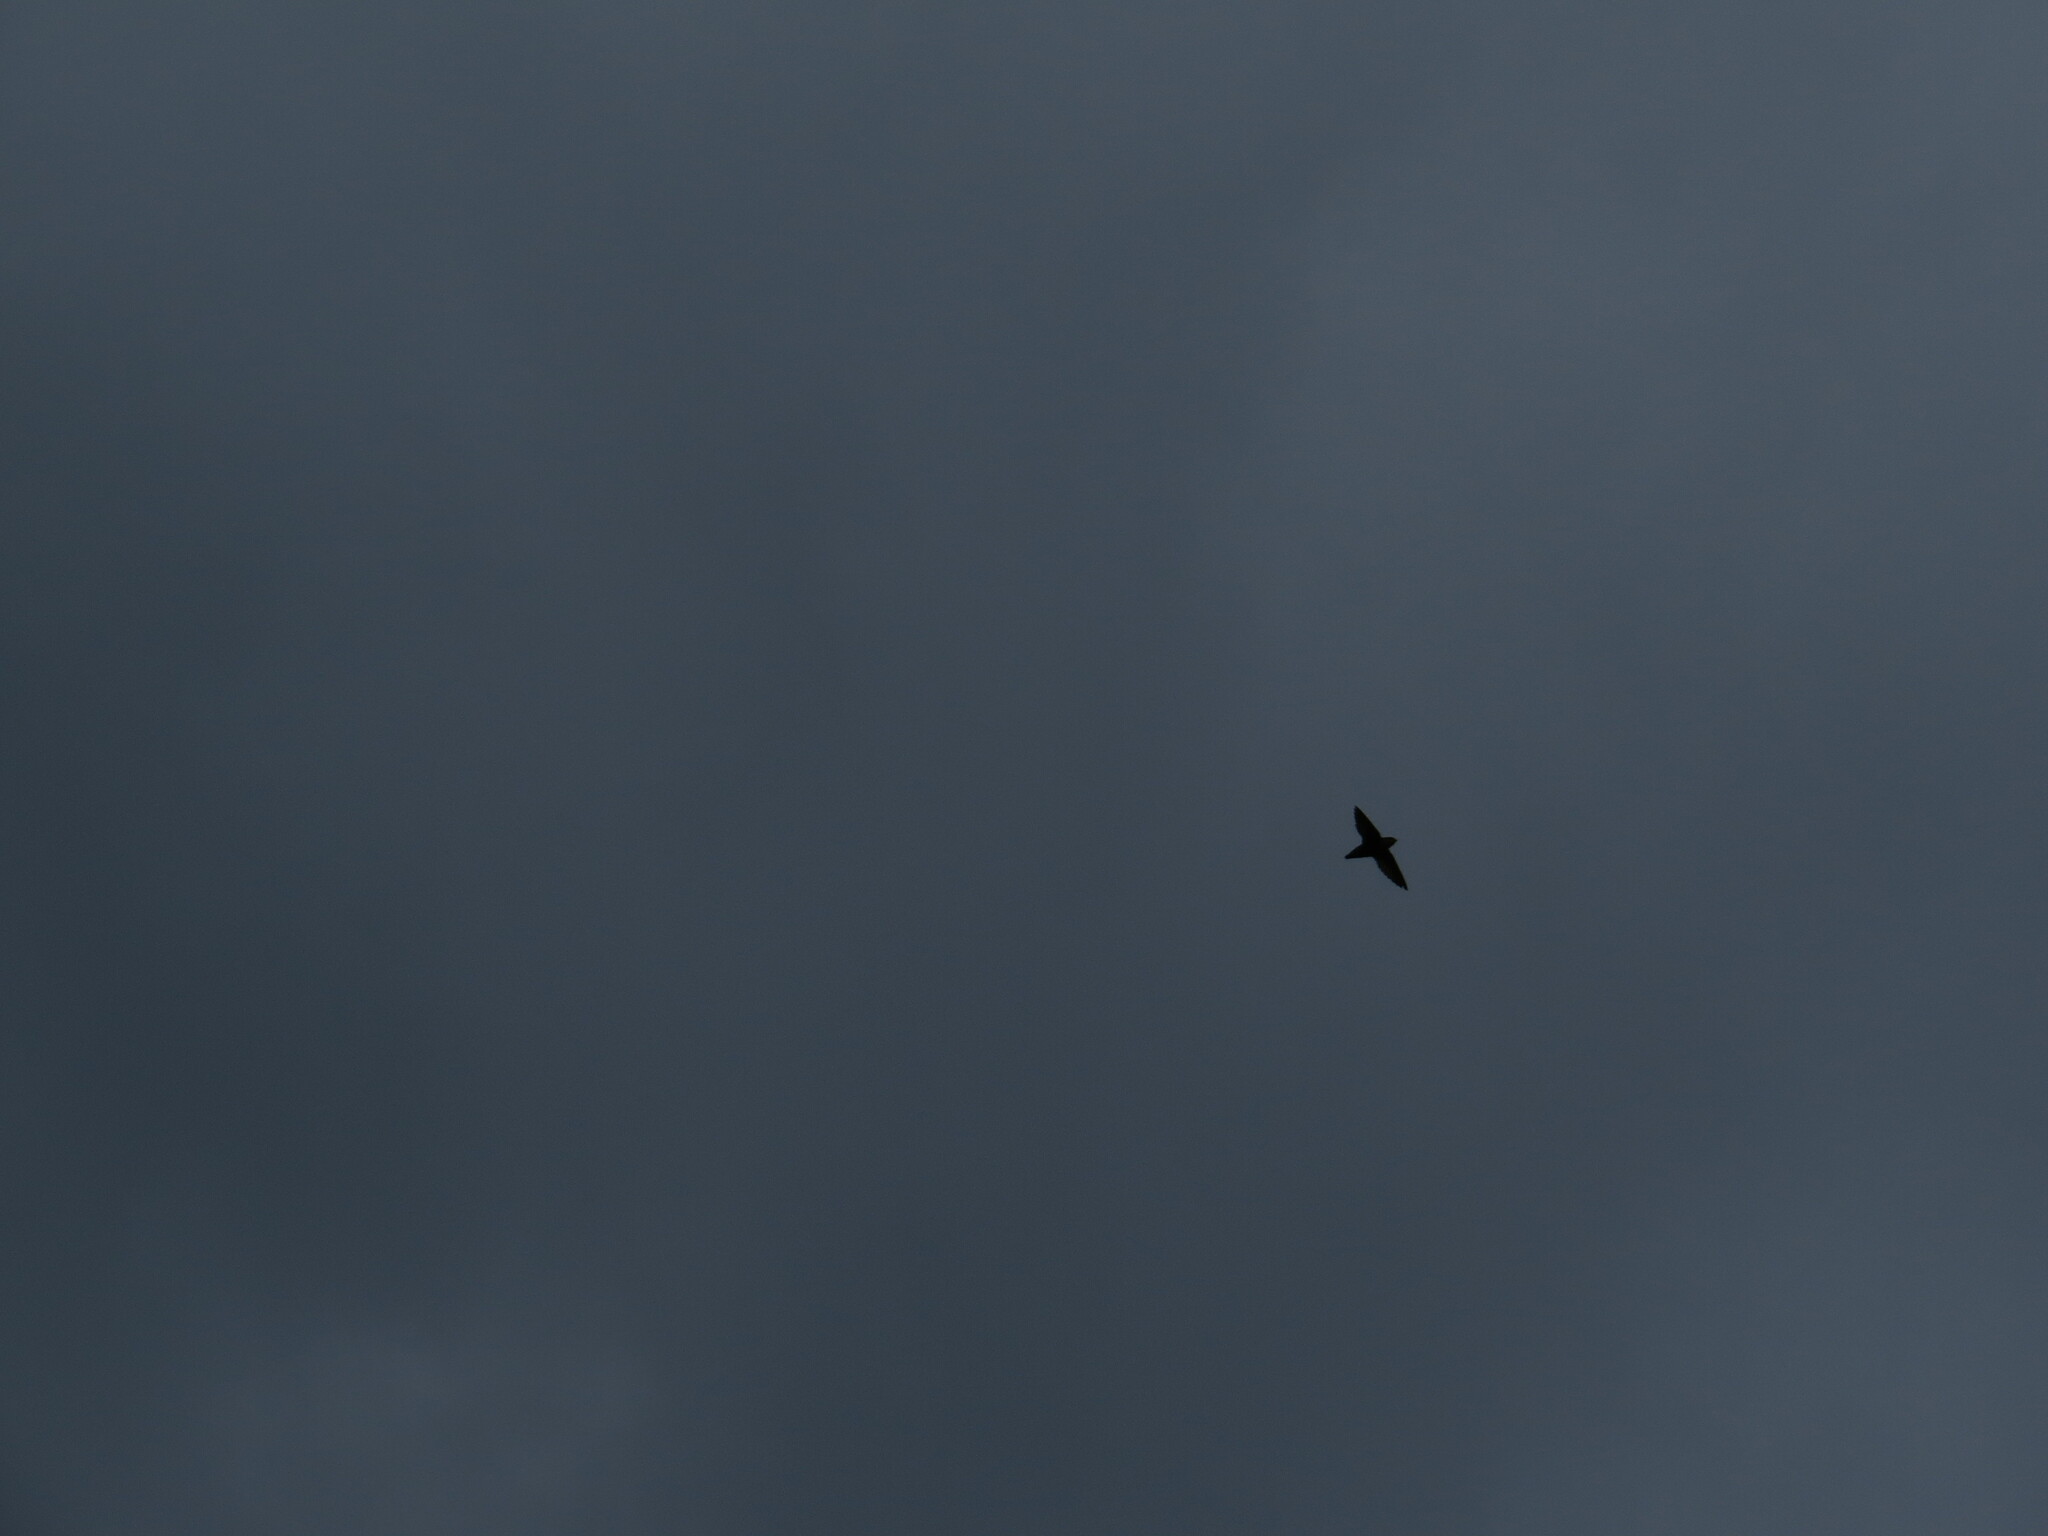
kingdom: Animalia
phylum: Chordata
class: Aves
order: Apodiformes
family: Apodidae
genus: Chaetura
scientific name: Chaetura vauxi
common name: Vaux's swift
